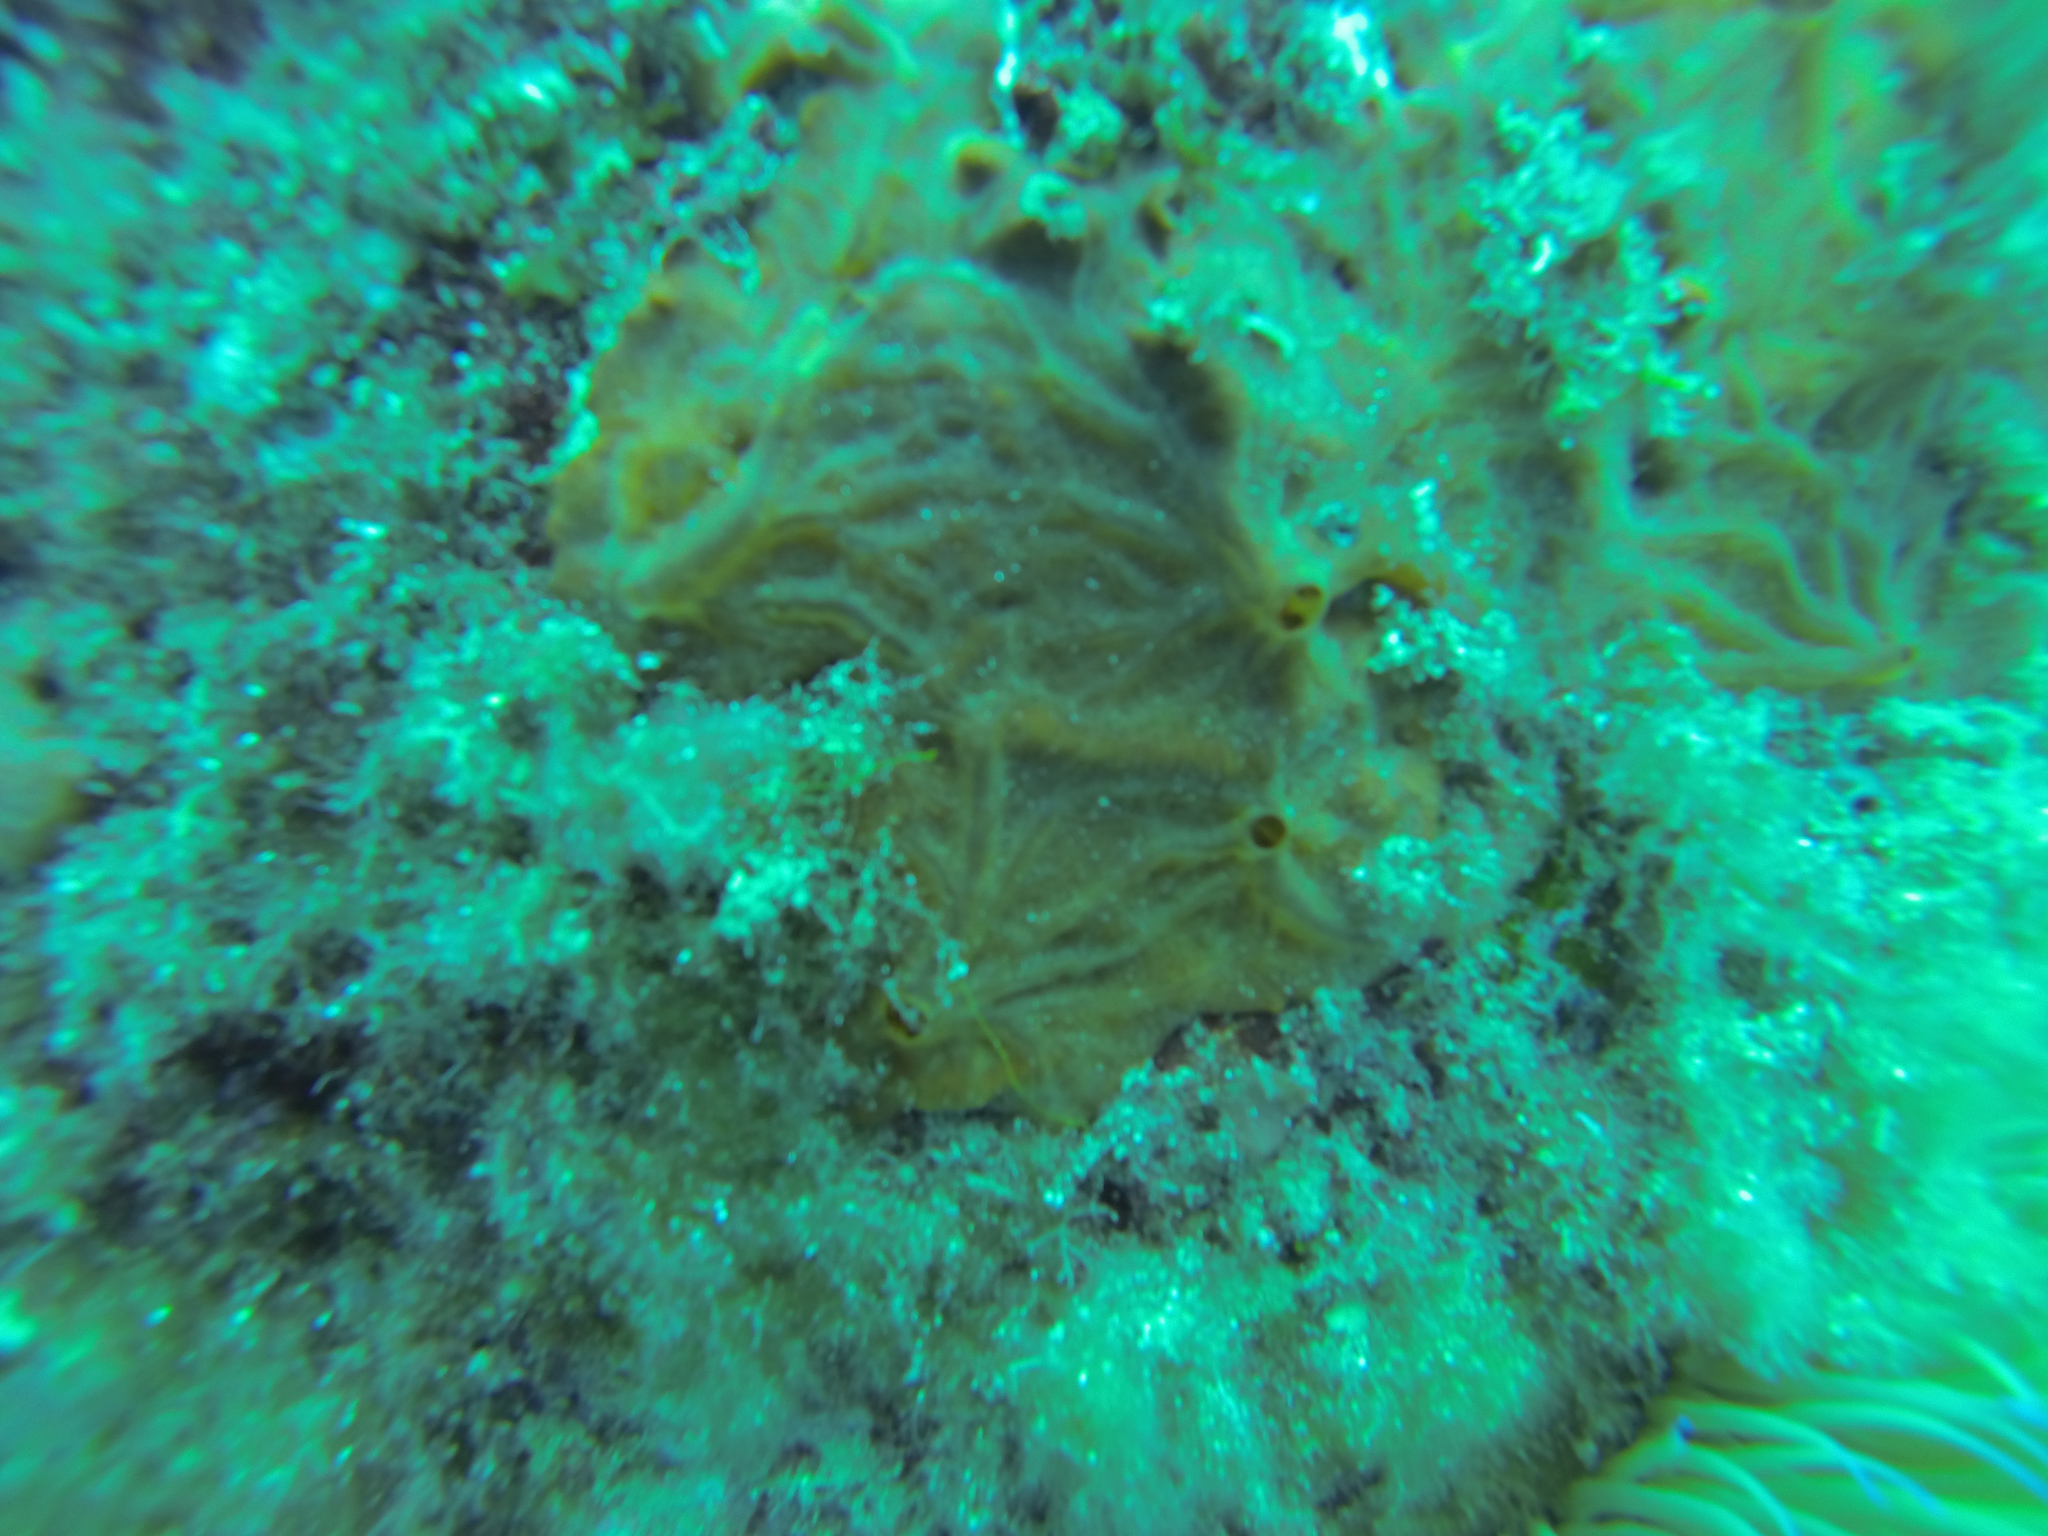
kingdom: Animalia
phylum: Porifera
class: Demospongiae
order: Poecilosclerida
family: Crambeidae
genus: Crambe
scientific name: Crambe crambe
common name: Orange-red encrusting sponge
